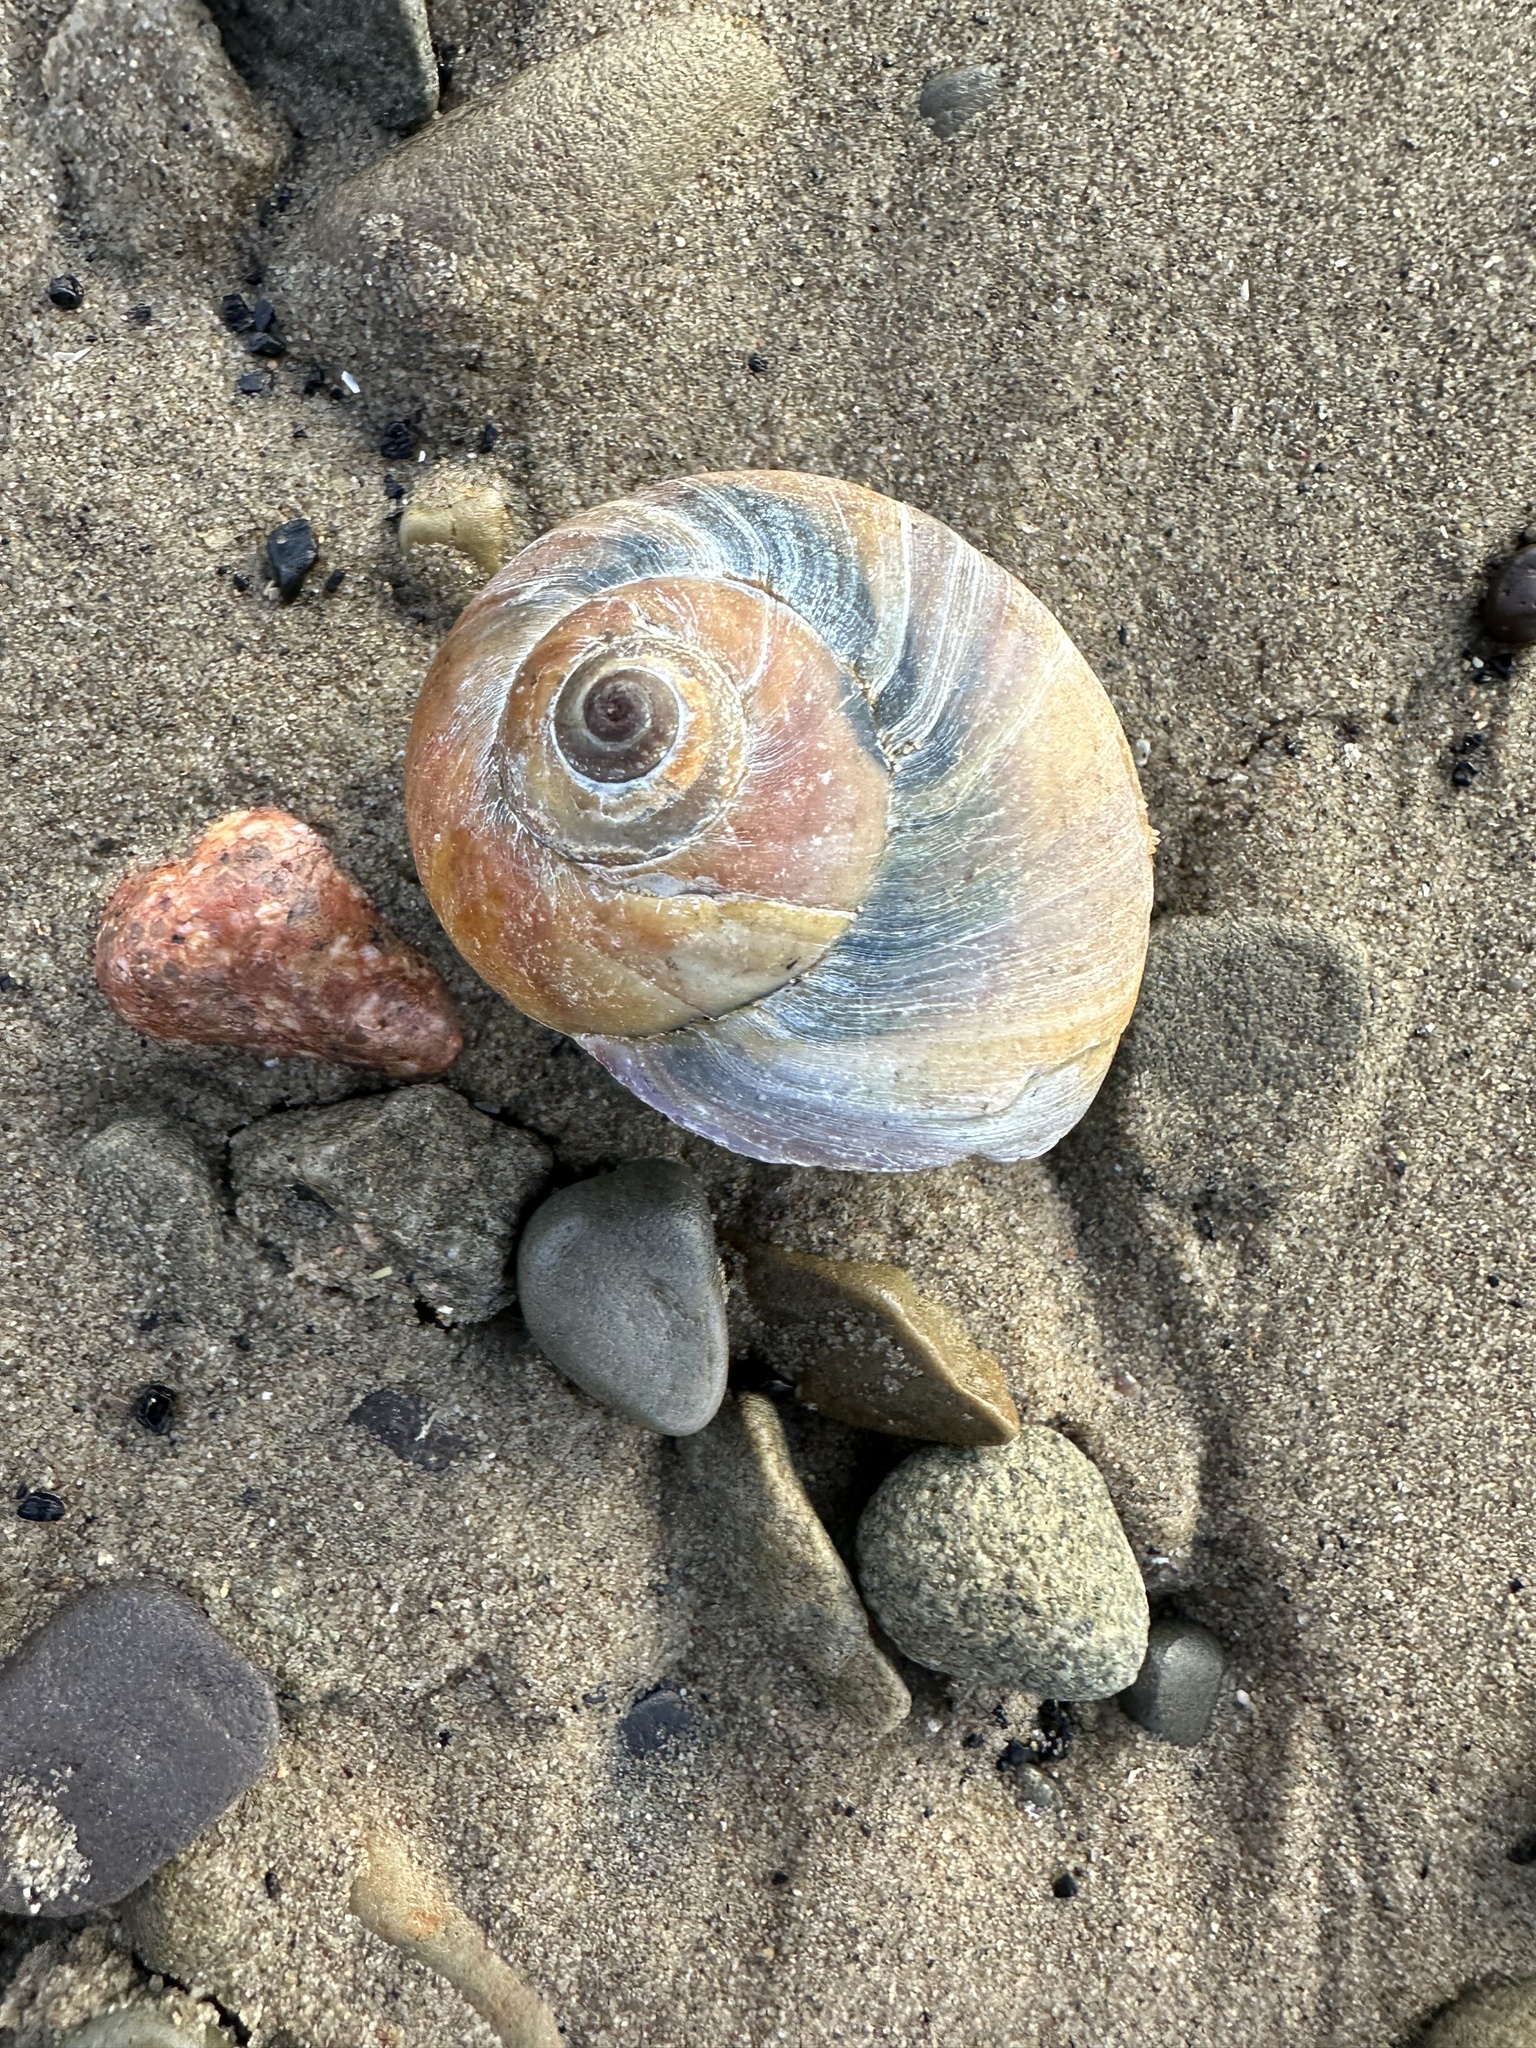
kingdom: Animalia
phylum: Mollusca
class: Gastropoda
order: Littorinimorpha
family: Naticidae
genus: Euspira
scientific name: Euspira heros
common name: Common northern moonsnail
